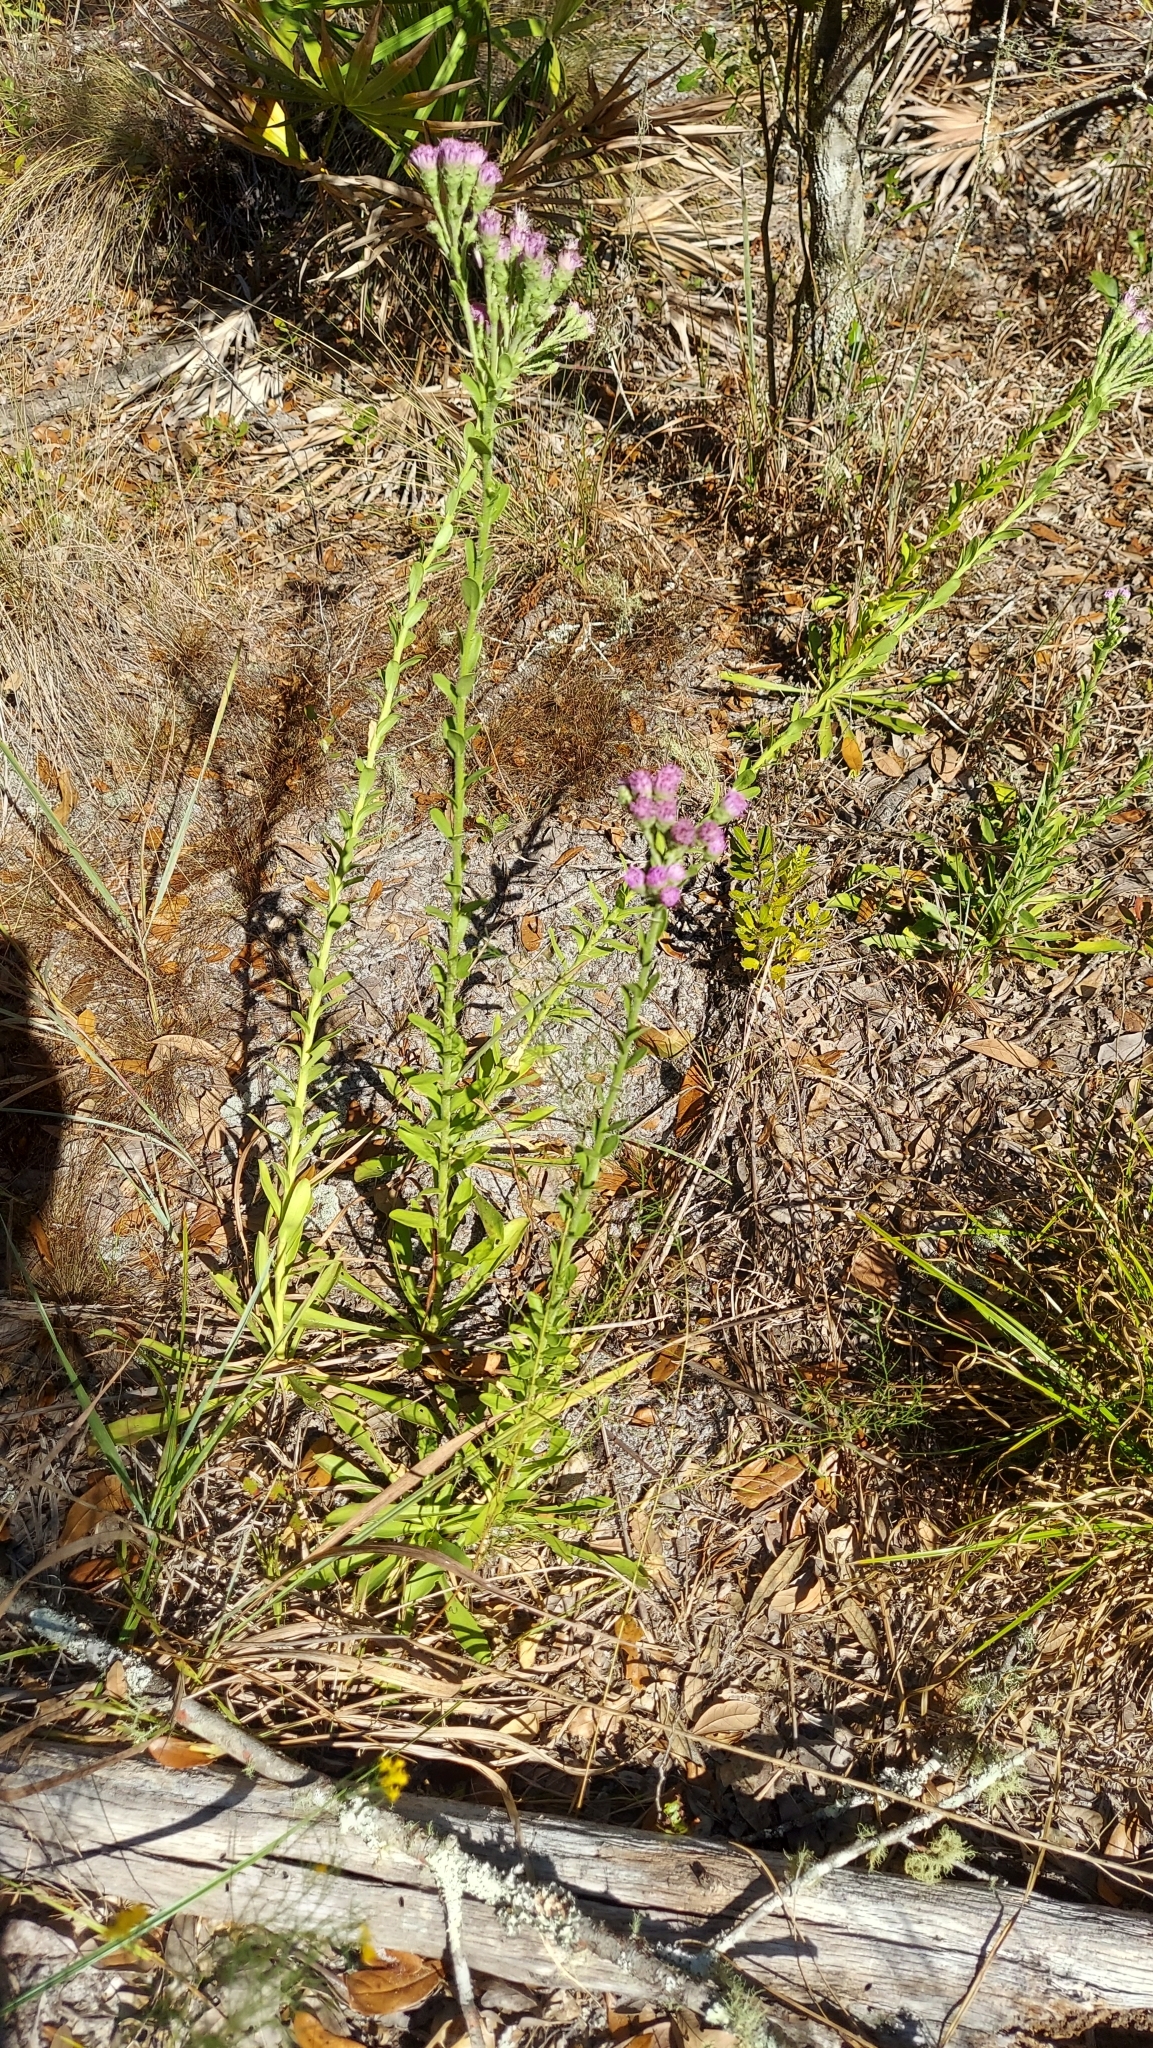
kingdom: Plantae
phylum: Tracheophyta
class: Magnoliopsida
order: Asterales
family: Asteraceae
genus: Carphephorus
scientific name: Carphephorus corymbosus
